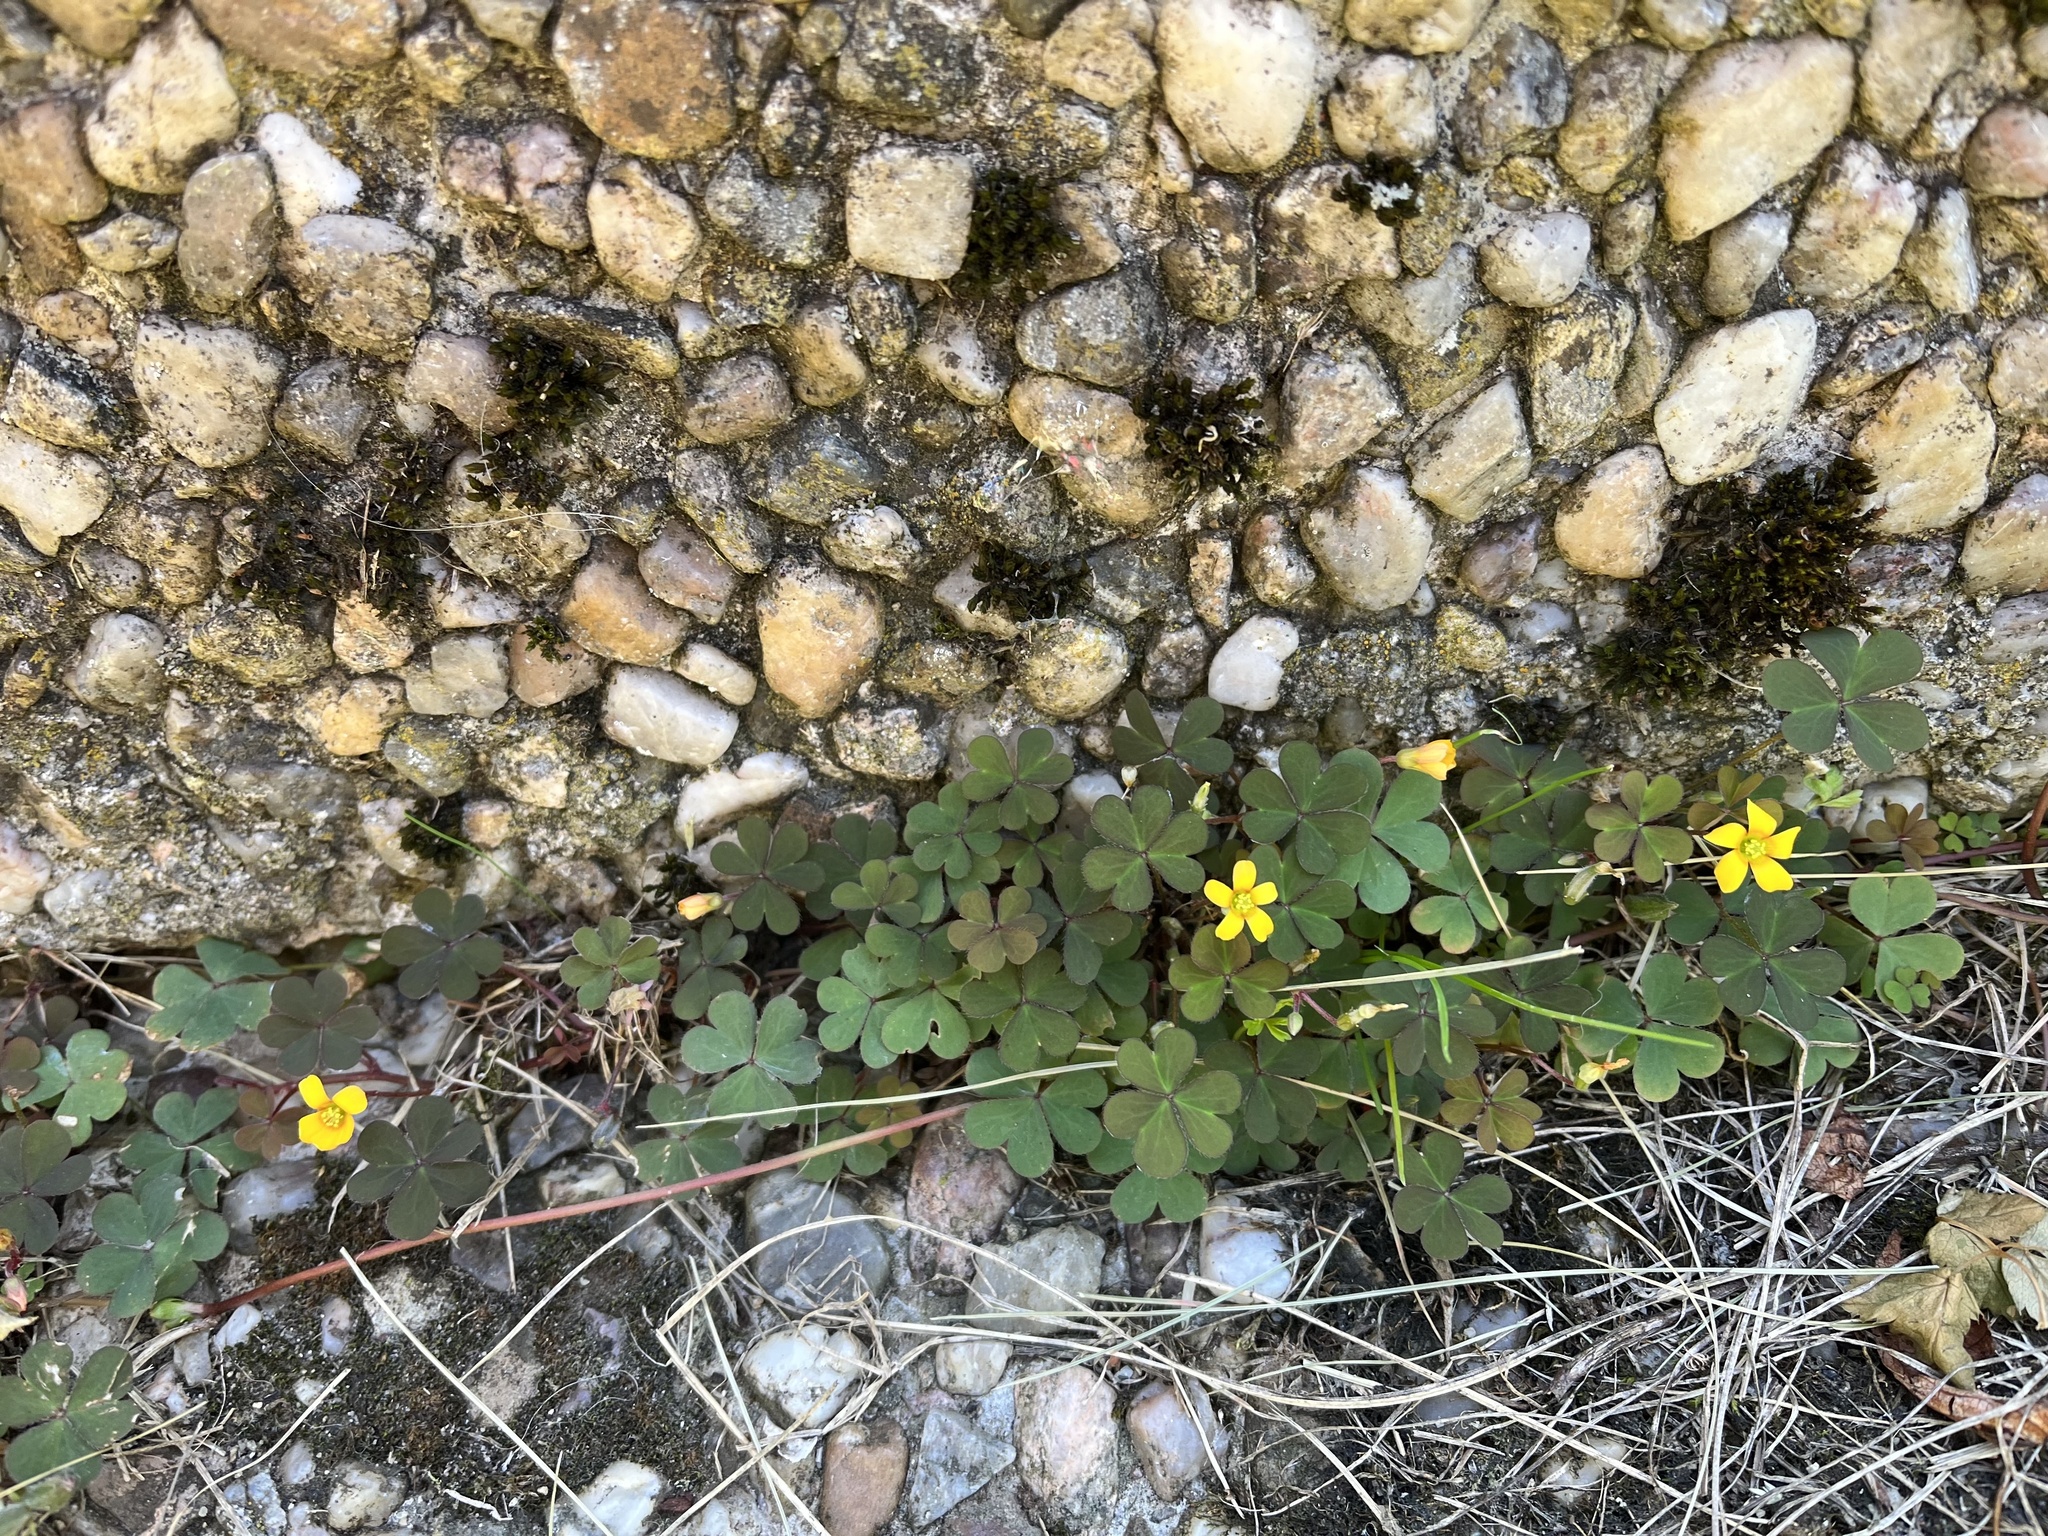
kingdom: Plantae
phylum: Tracheophyta
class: Magnoliopsida
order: Oxalidales
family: Oxalidaceae
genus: Oxalis
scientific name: Oxalis corniculata
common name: Procumbent yellow-sorrel
